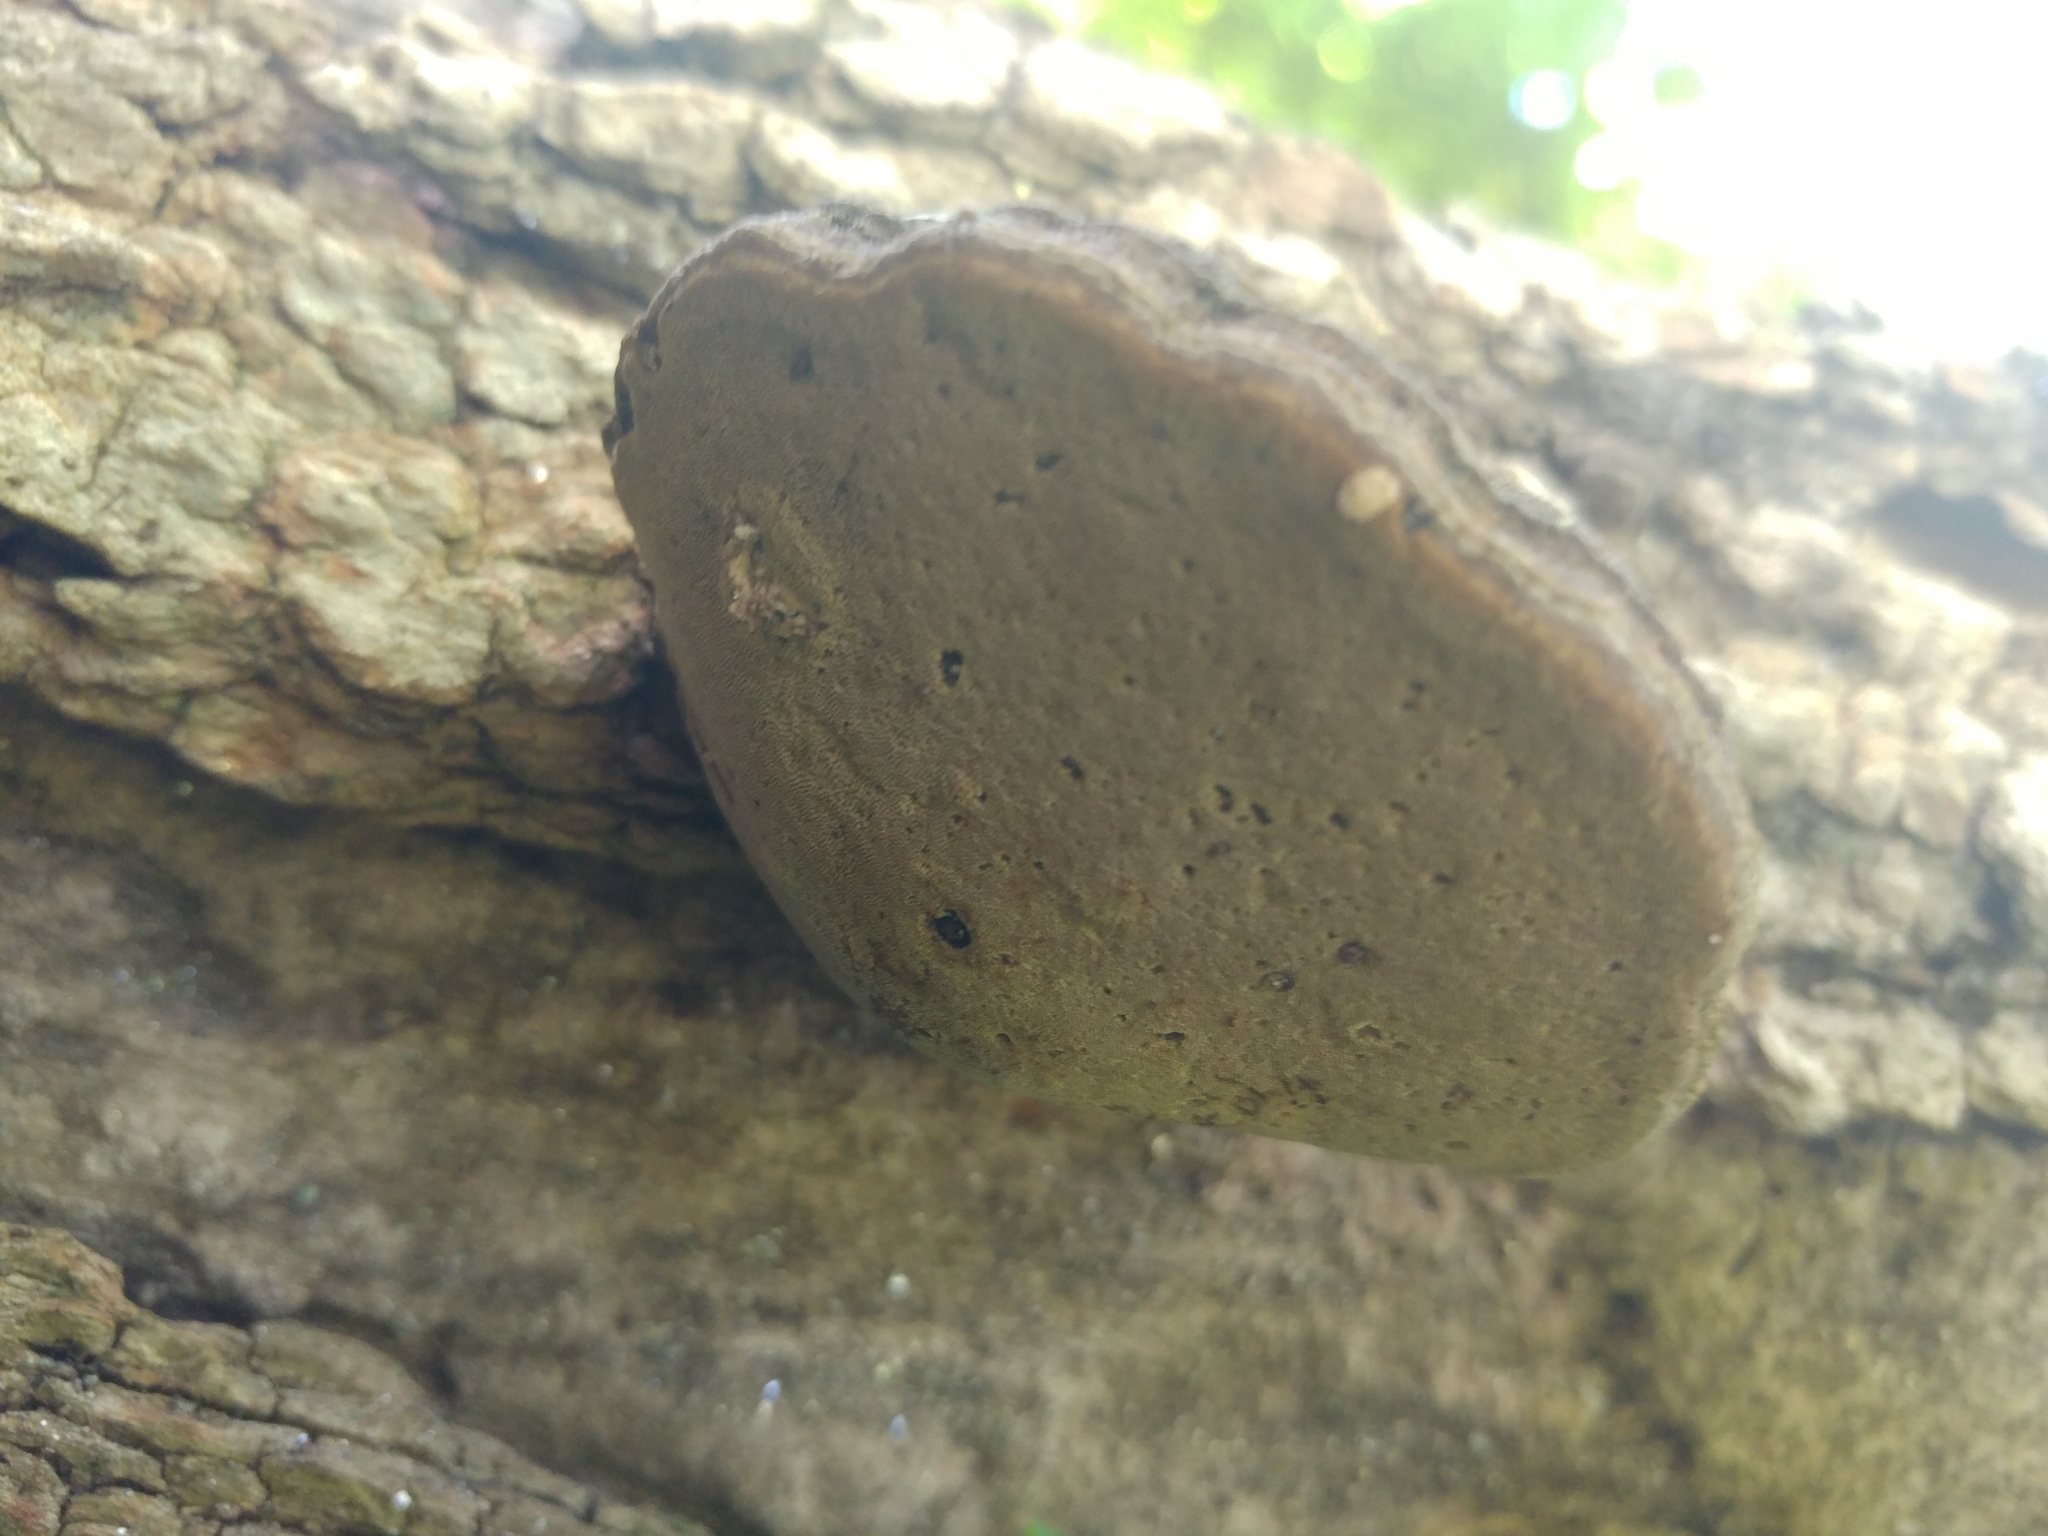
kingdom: Fungi
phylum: Basidiomycota
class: Agaricomycetes
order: Hymenochaetales
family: Hymenochaetaceae
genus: Phellinus
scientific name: Phellinus robiniae
